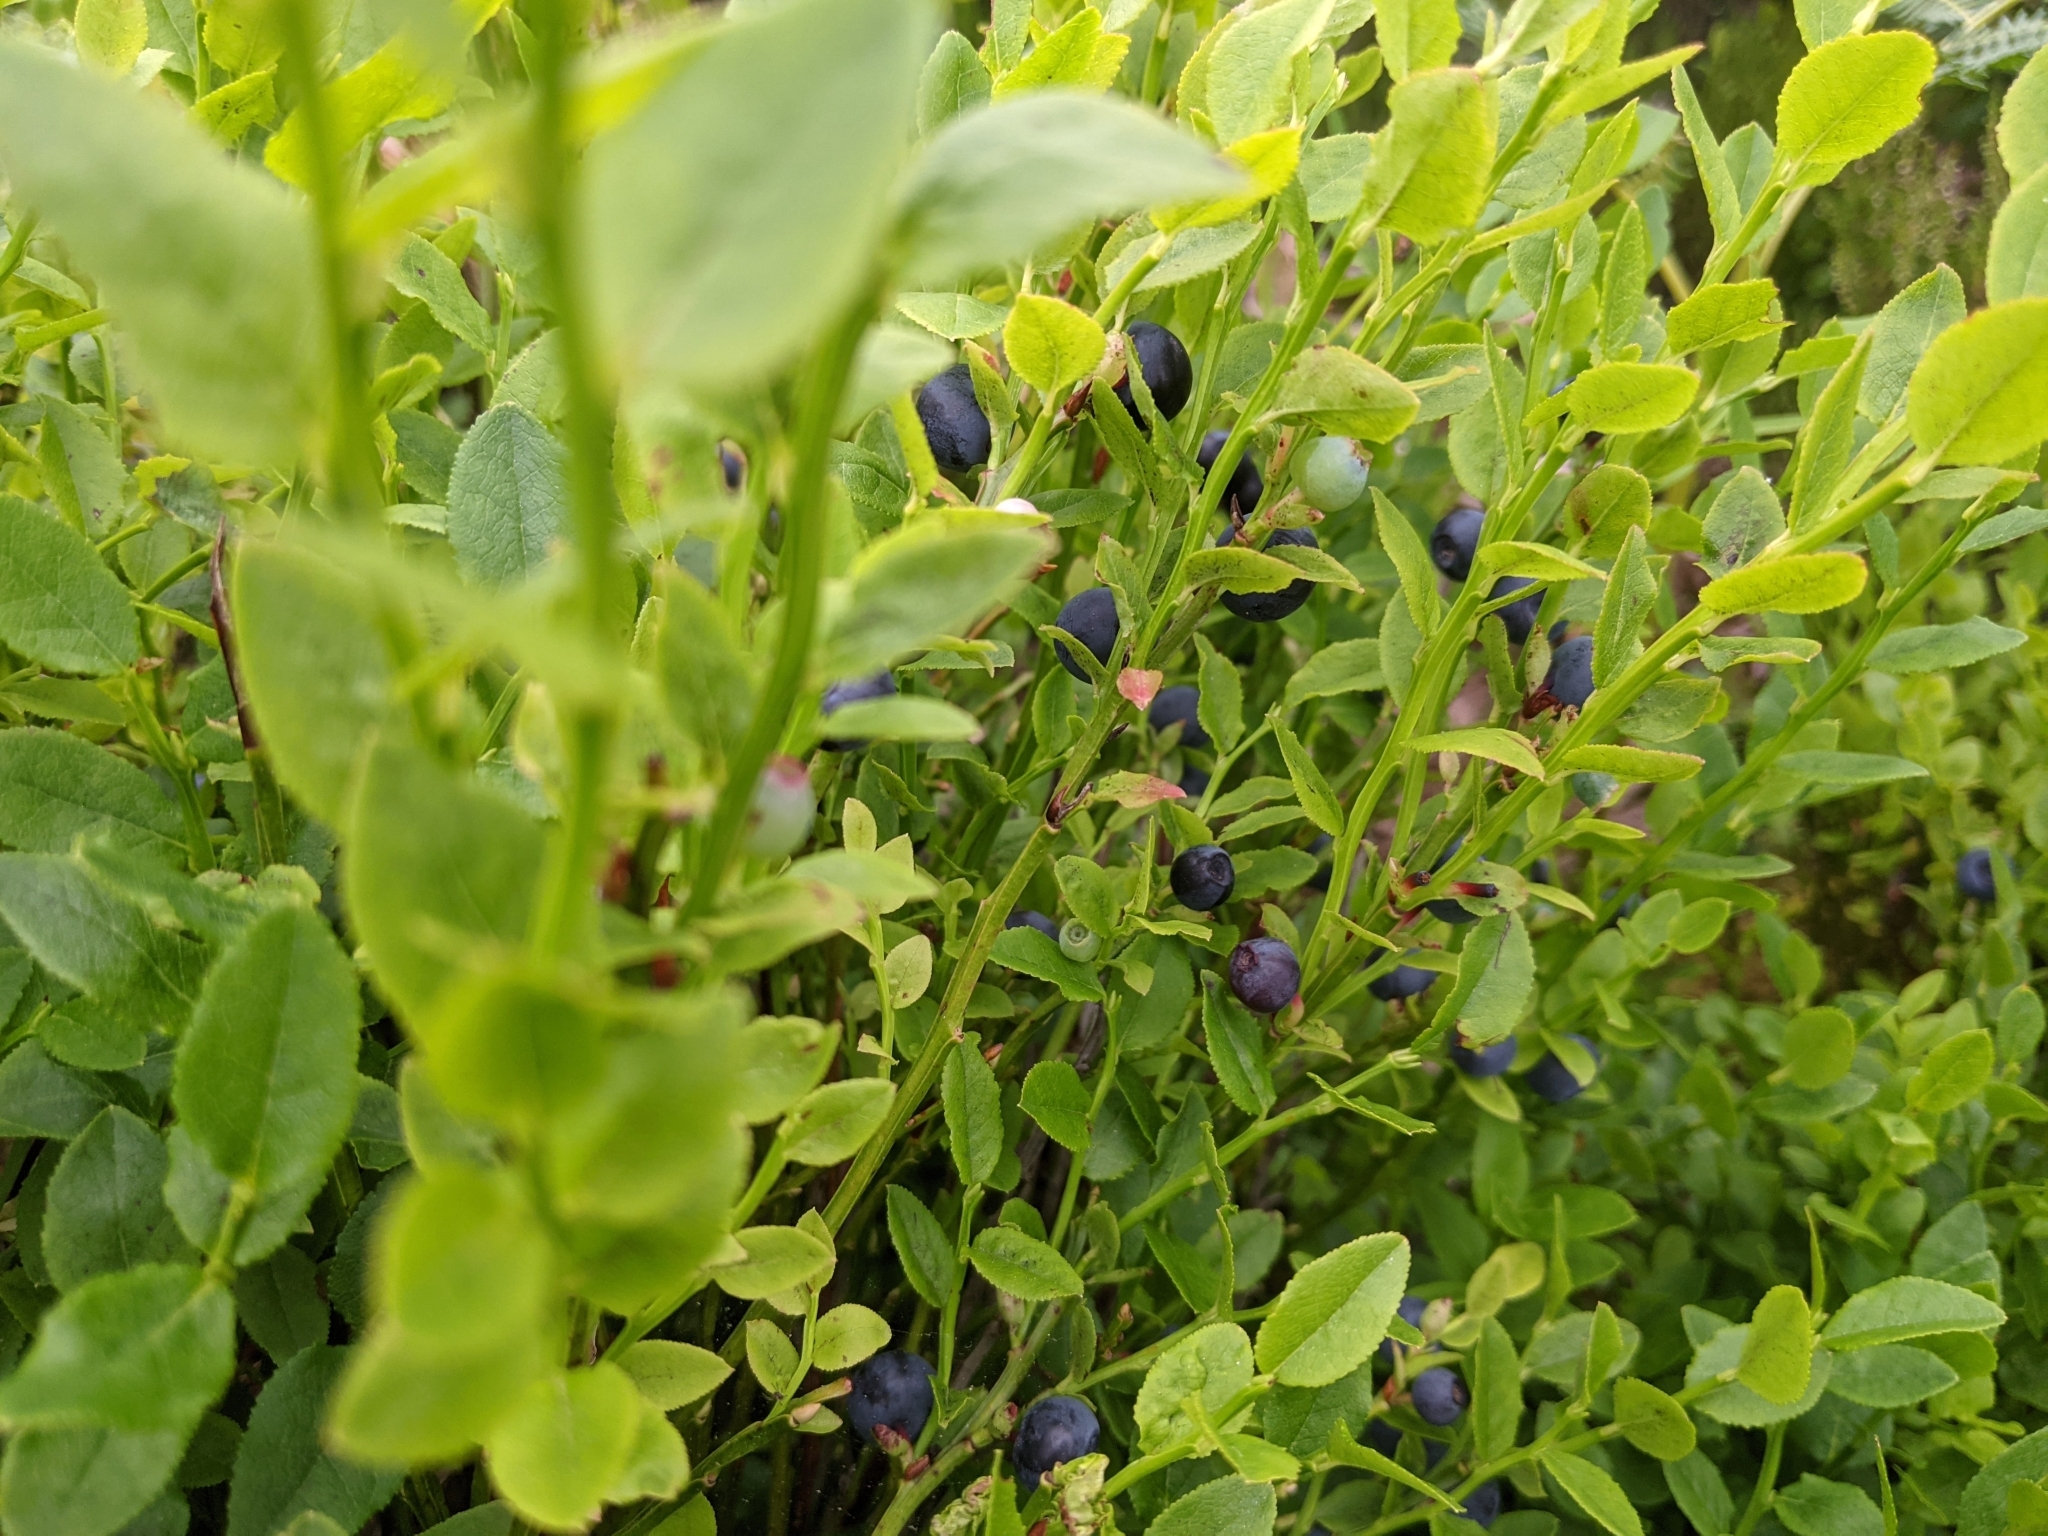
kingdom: Plantae
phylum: Tracheophyta
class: Magnoliopsida
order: Ericales
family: Ericaceae
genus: Vaccinium
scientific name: Vaccinium myrtillus
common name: Bilberry
